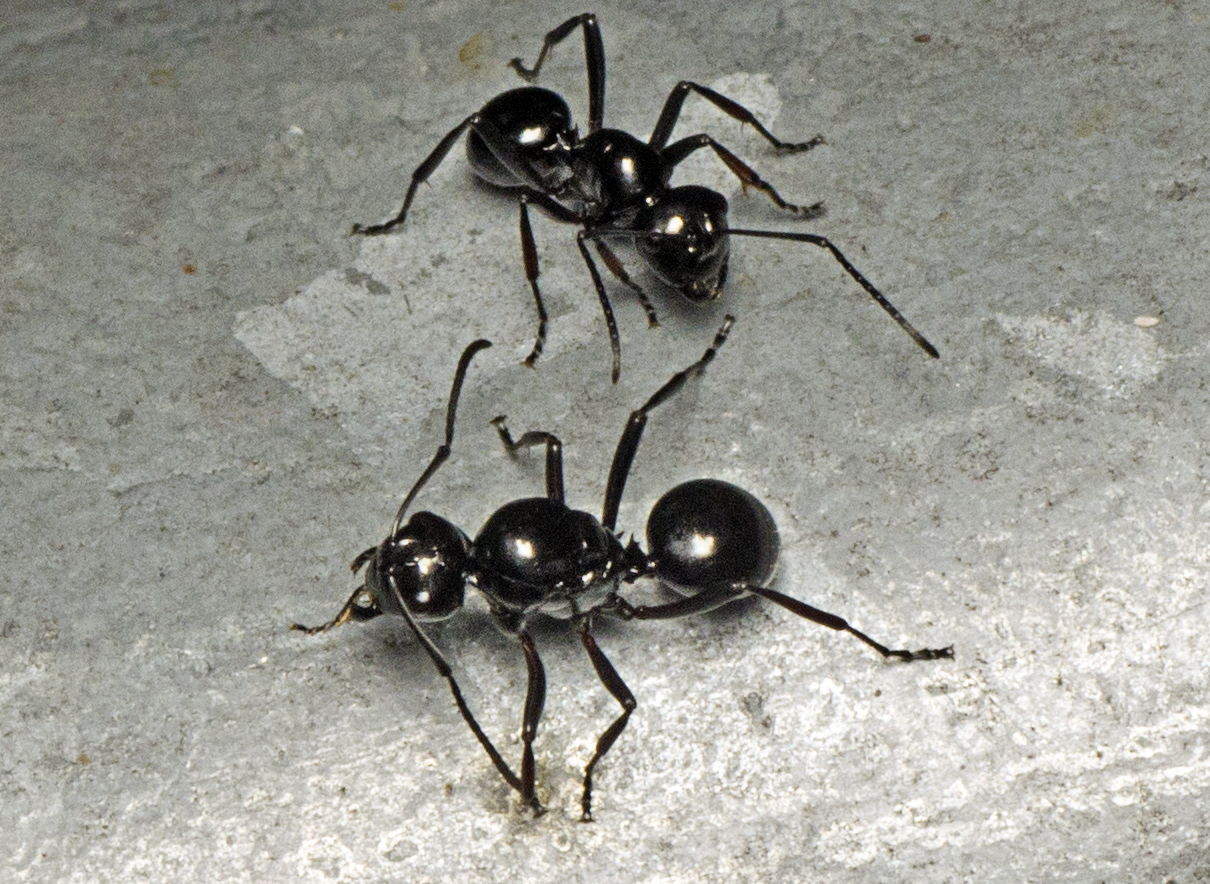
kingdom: Animalia
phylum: Arthropoda
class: Insecta
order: Hymenoptera
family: Formicidae
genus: Polyrhachis
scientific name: Polyrhachis australis
